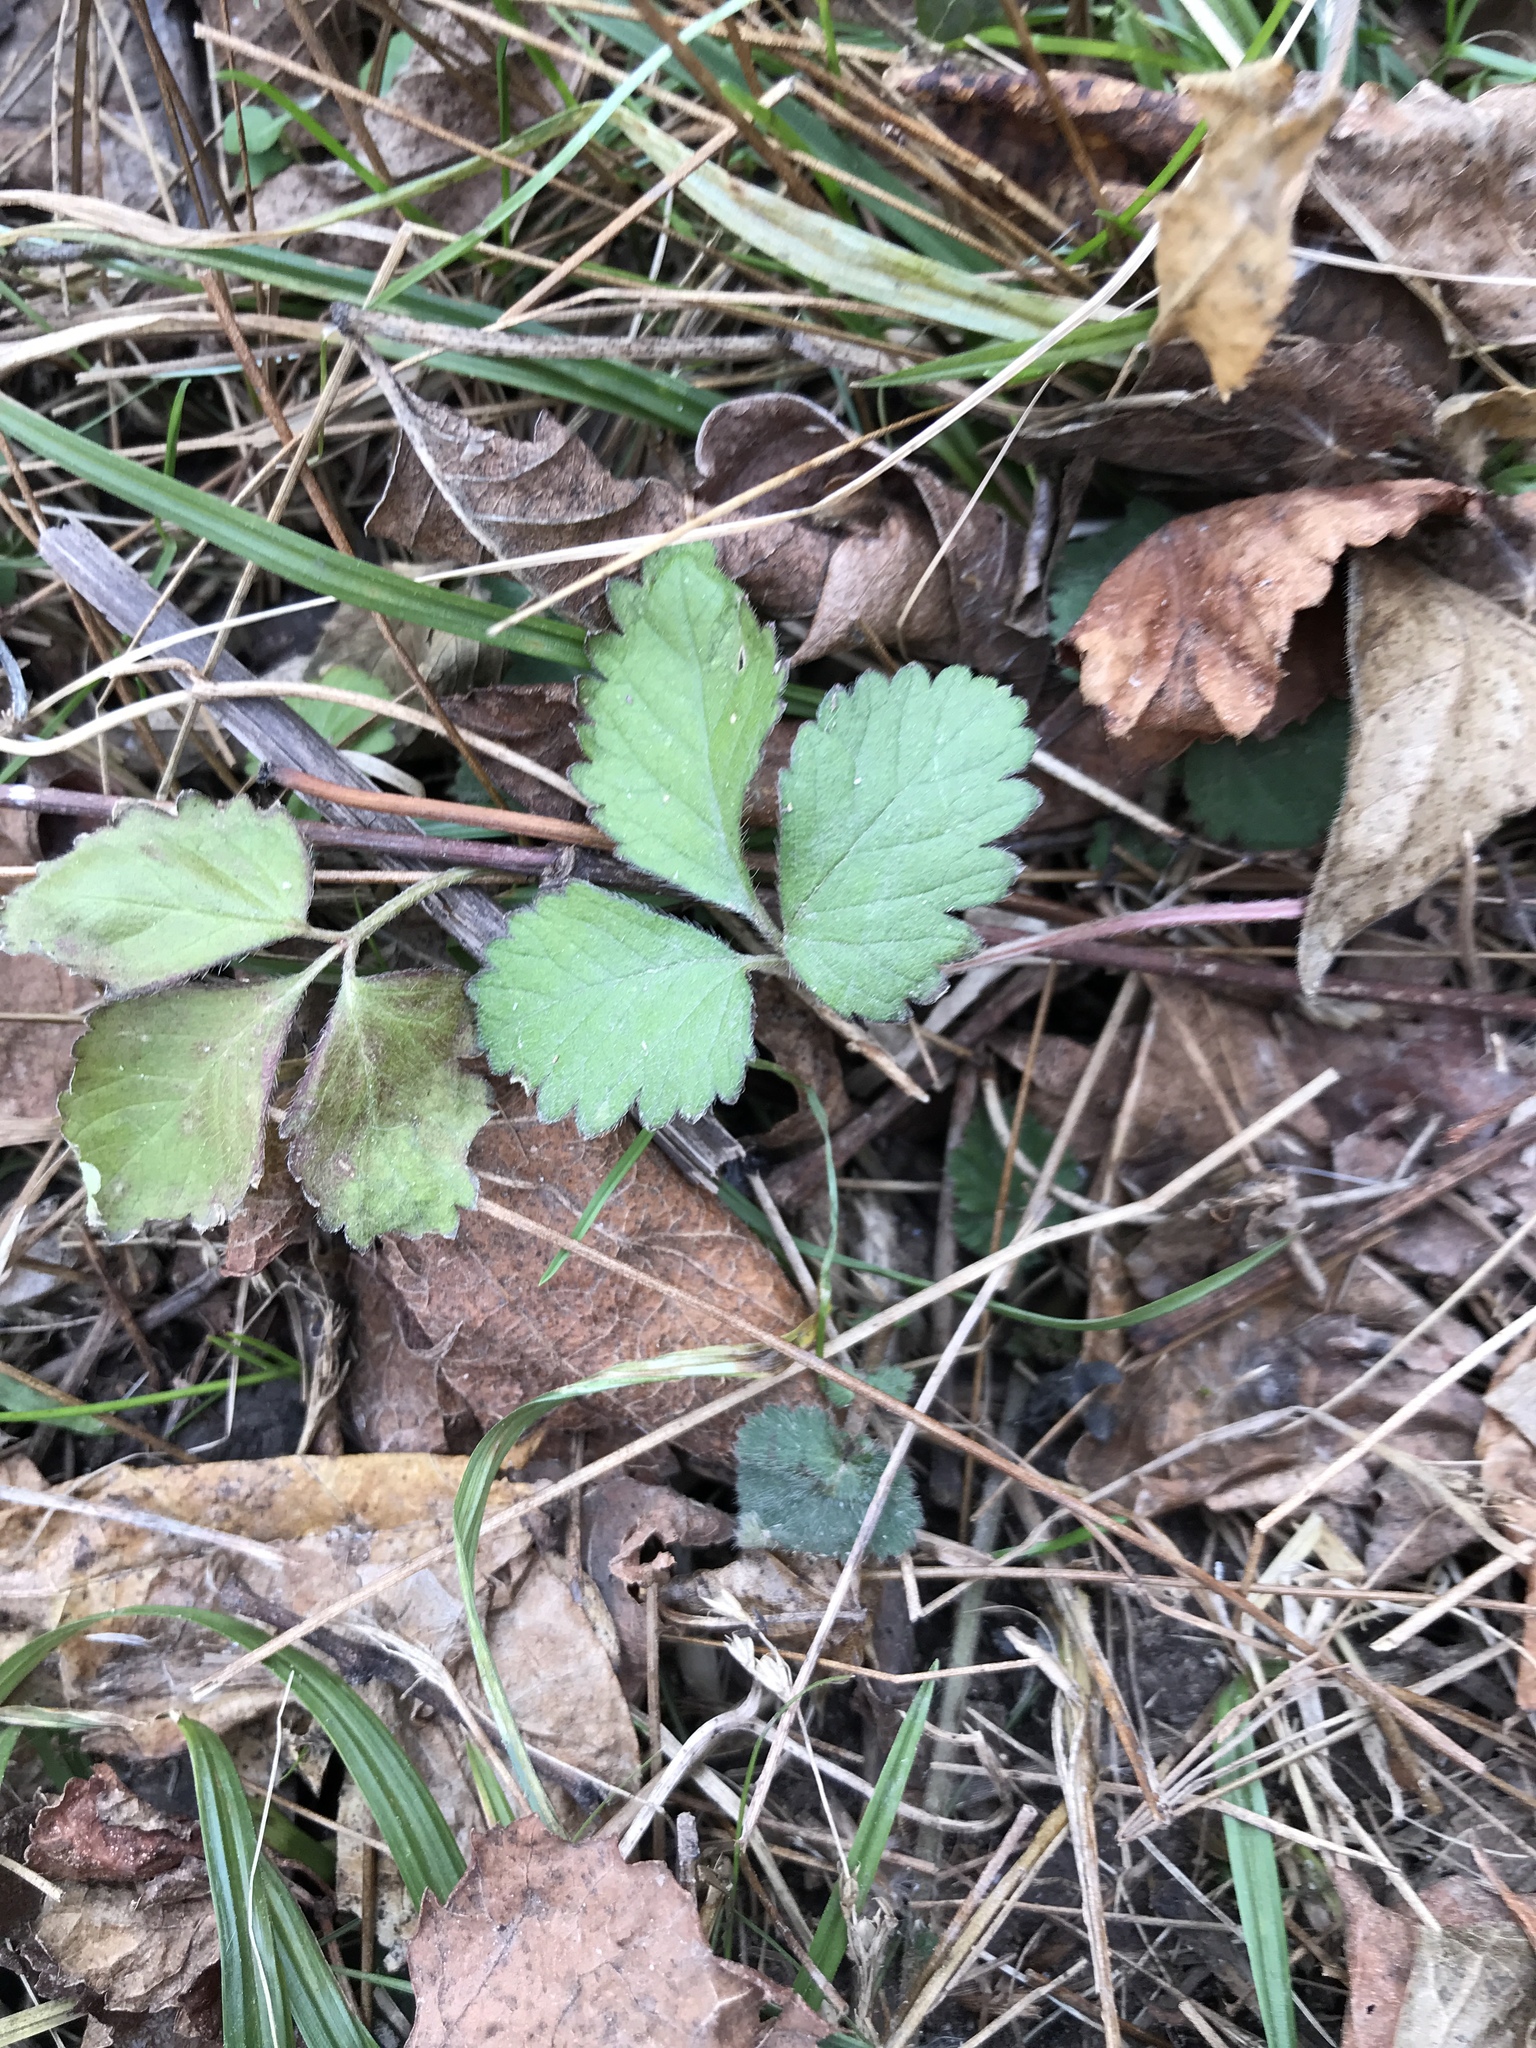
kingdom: Plantae
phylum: Tracheophyta
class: Magnoliopsida
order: Rosales
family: Rosaceae
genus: Potentilla
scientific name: Potentilla indica
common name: Yellow-flowered strawberry
